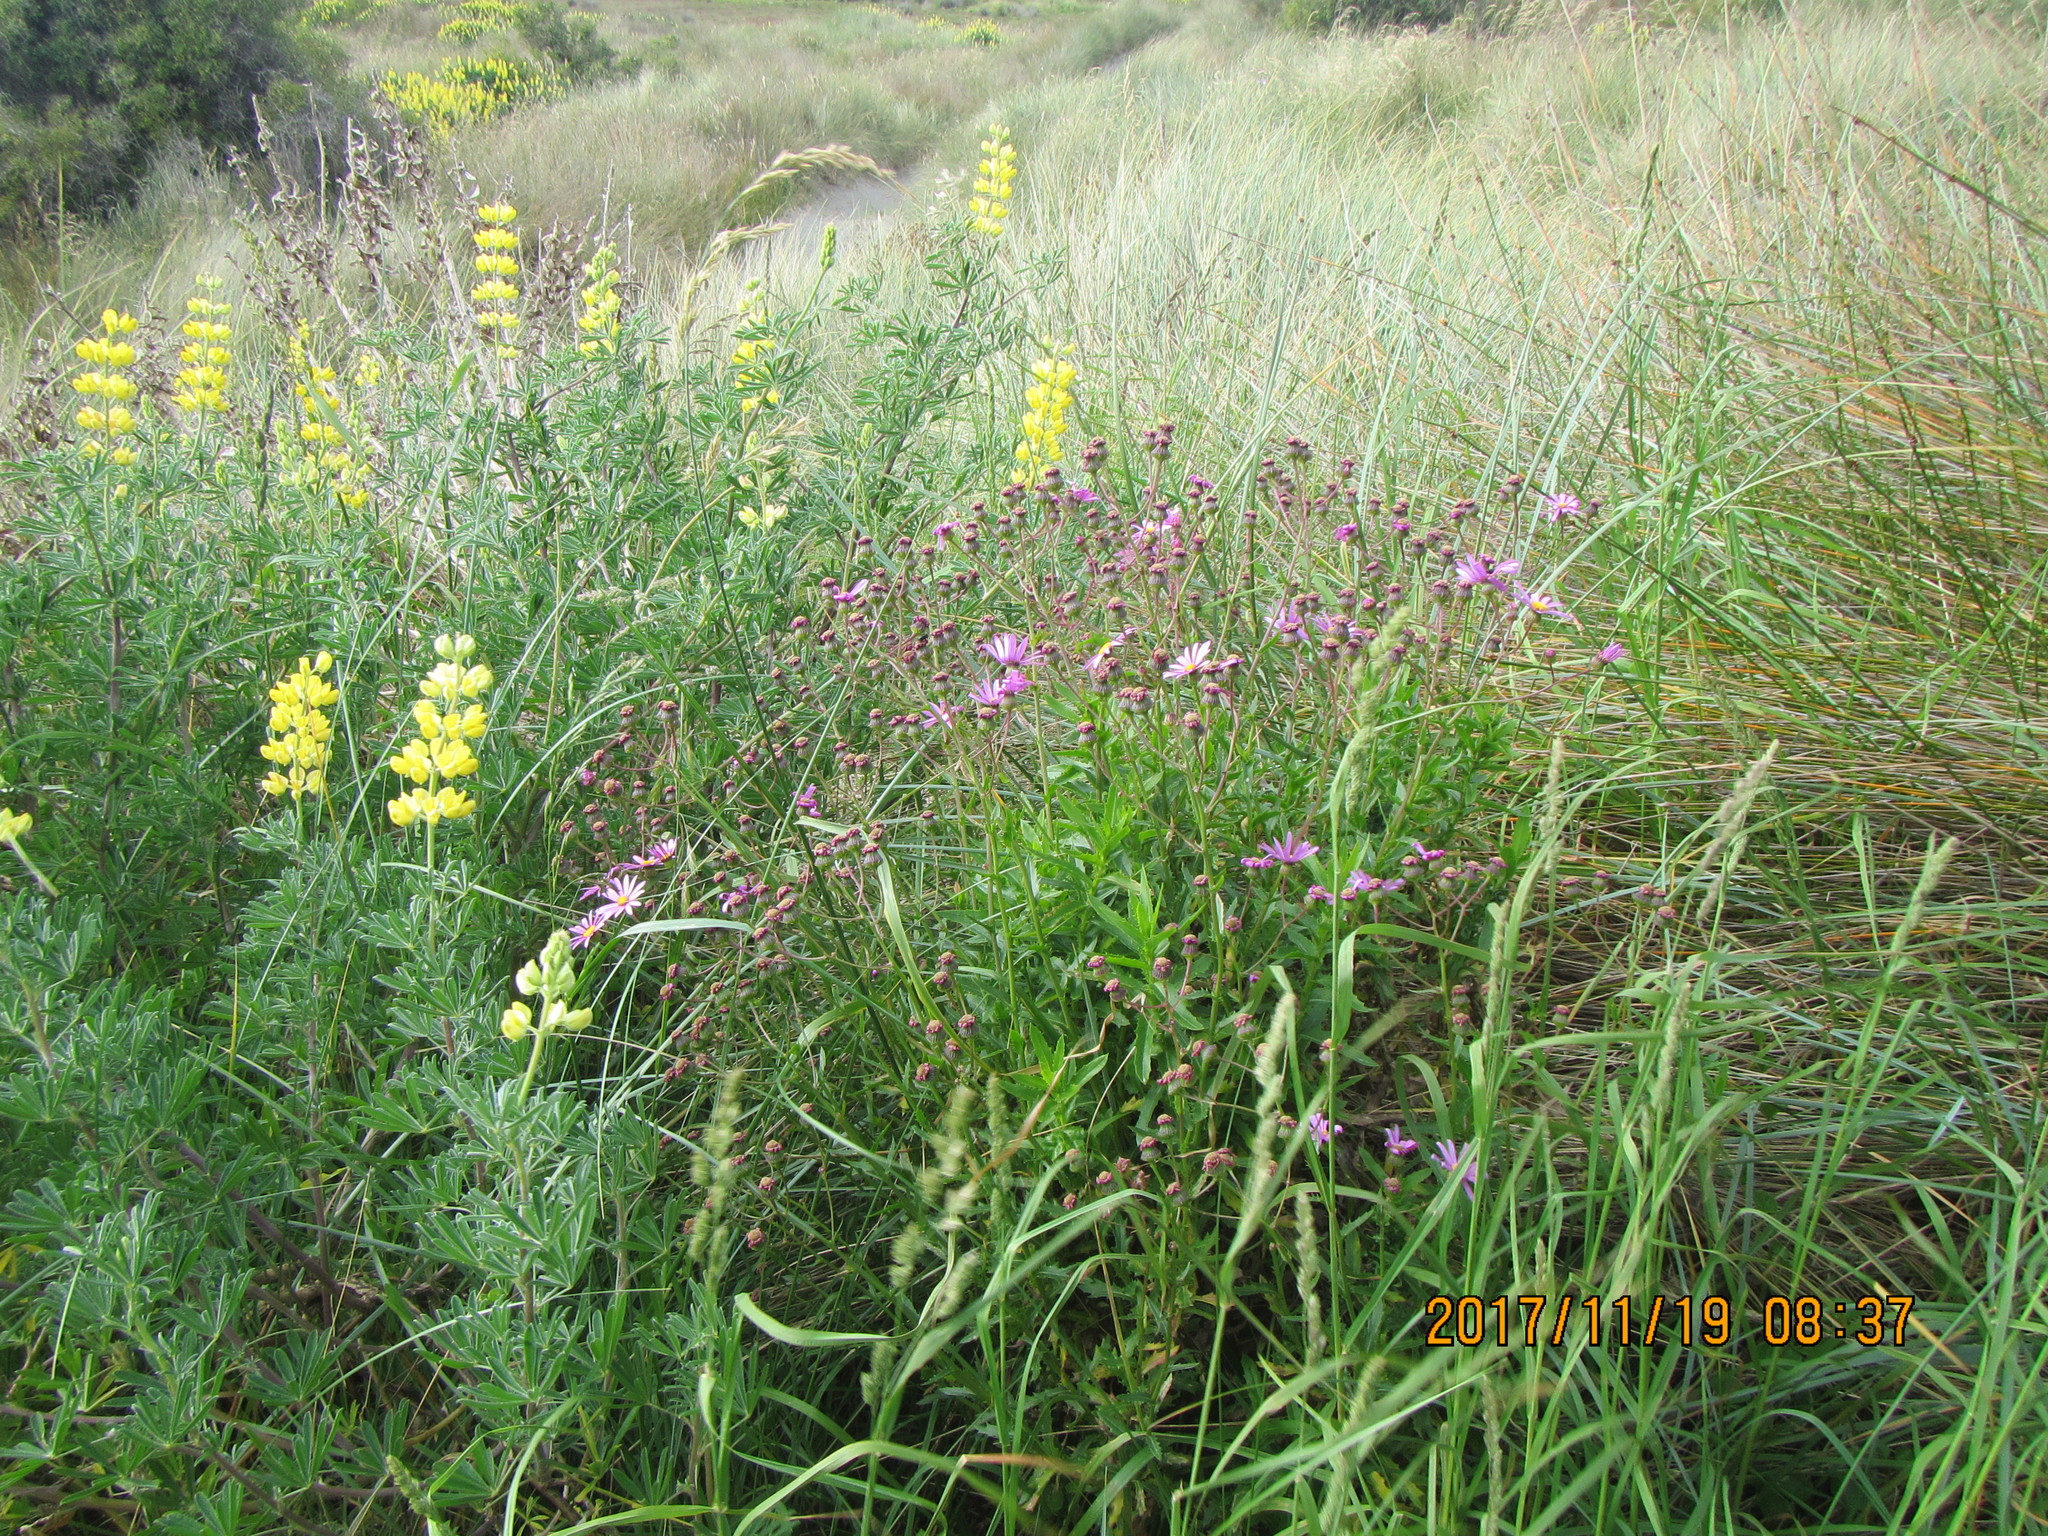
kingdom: Plantae
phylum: Tracheophyta
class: Magnoliopsida
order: Asterales
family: Asteraceae
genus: Senecio
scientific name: Senecio glastifolius
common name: Woad-leaved ragwort
